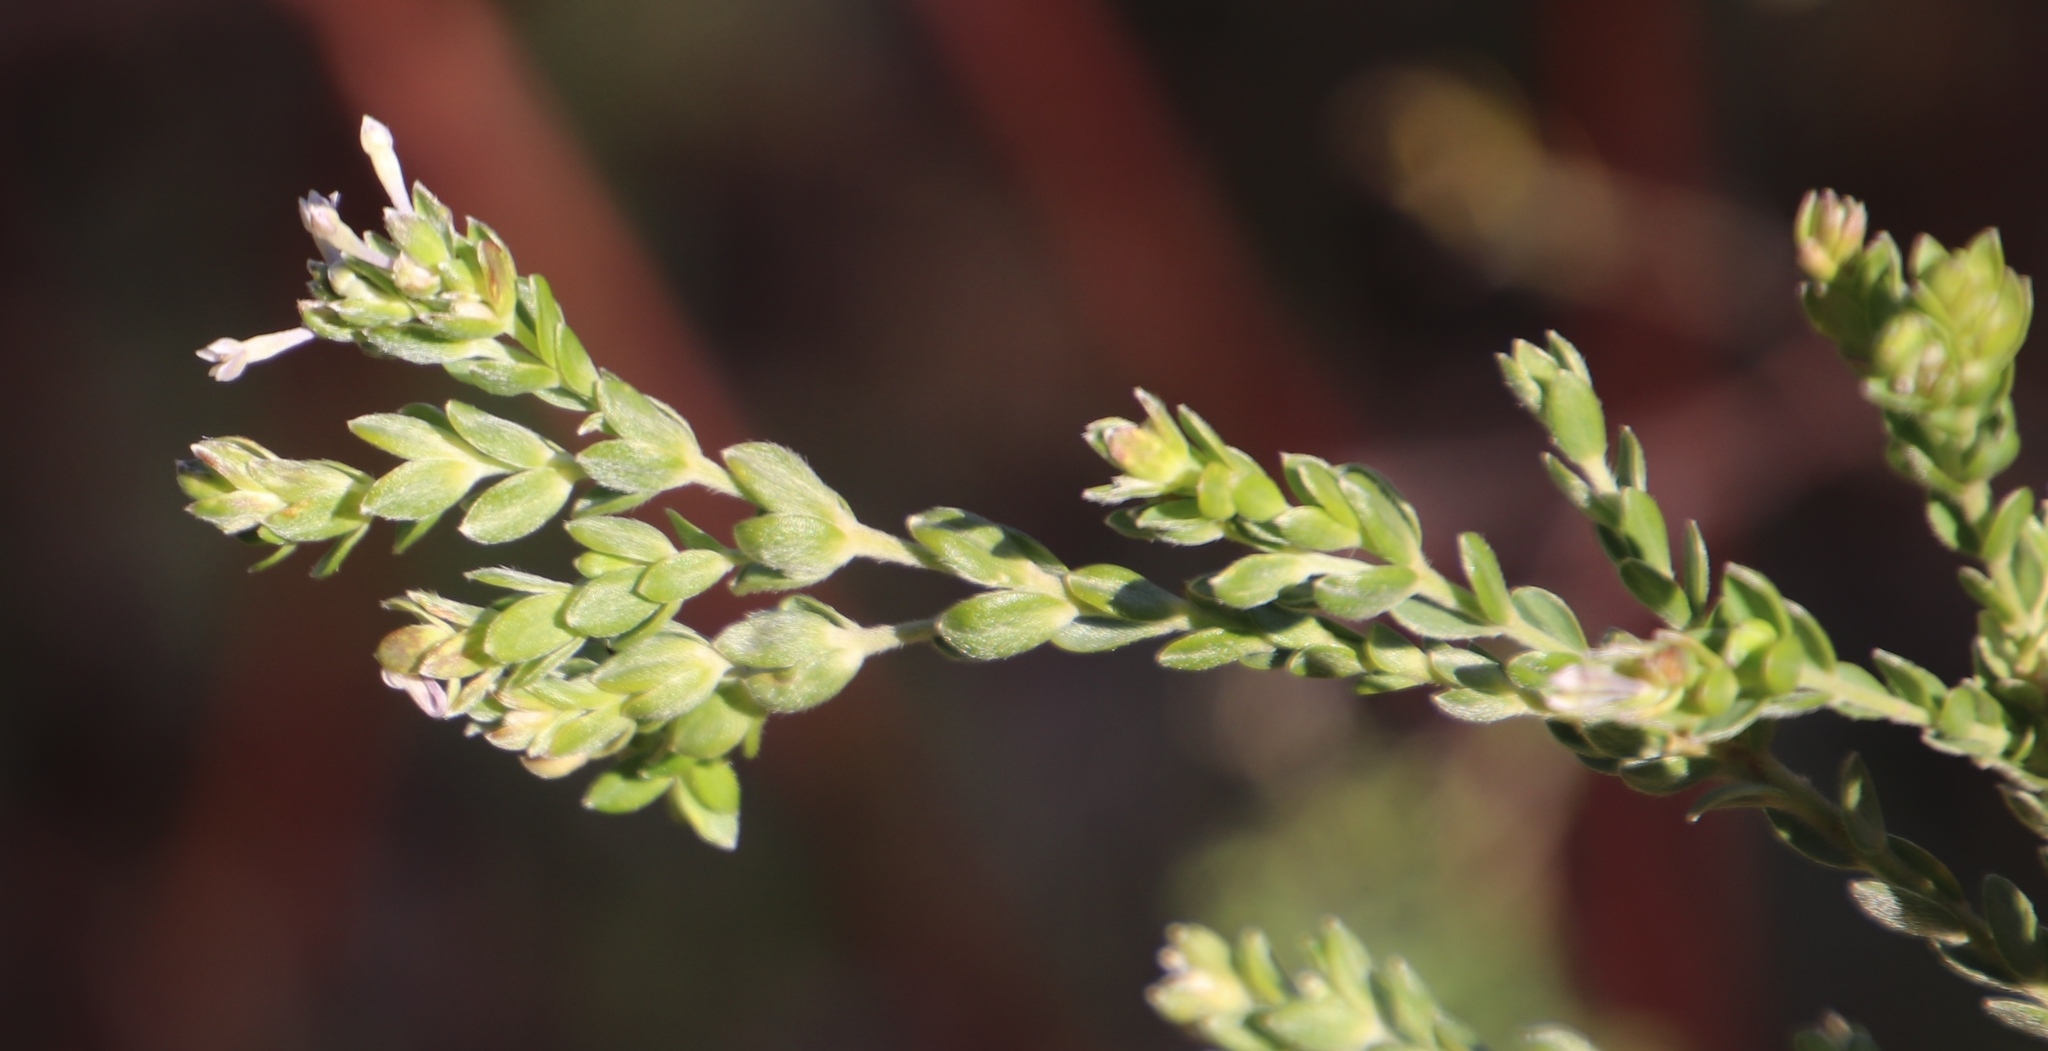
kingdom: Plantae
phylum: Tracheophyta
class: Magnoliopsida
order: Malvales
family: Thymelaeaceae
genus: Gnidia
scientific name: Gnidia sericea
